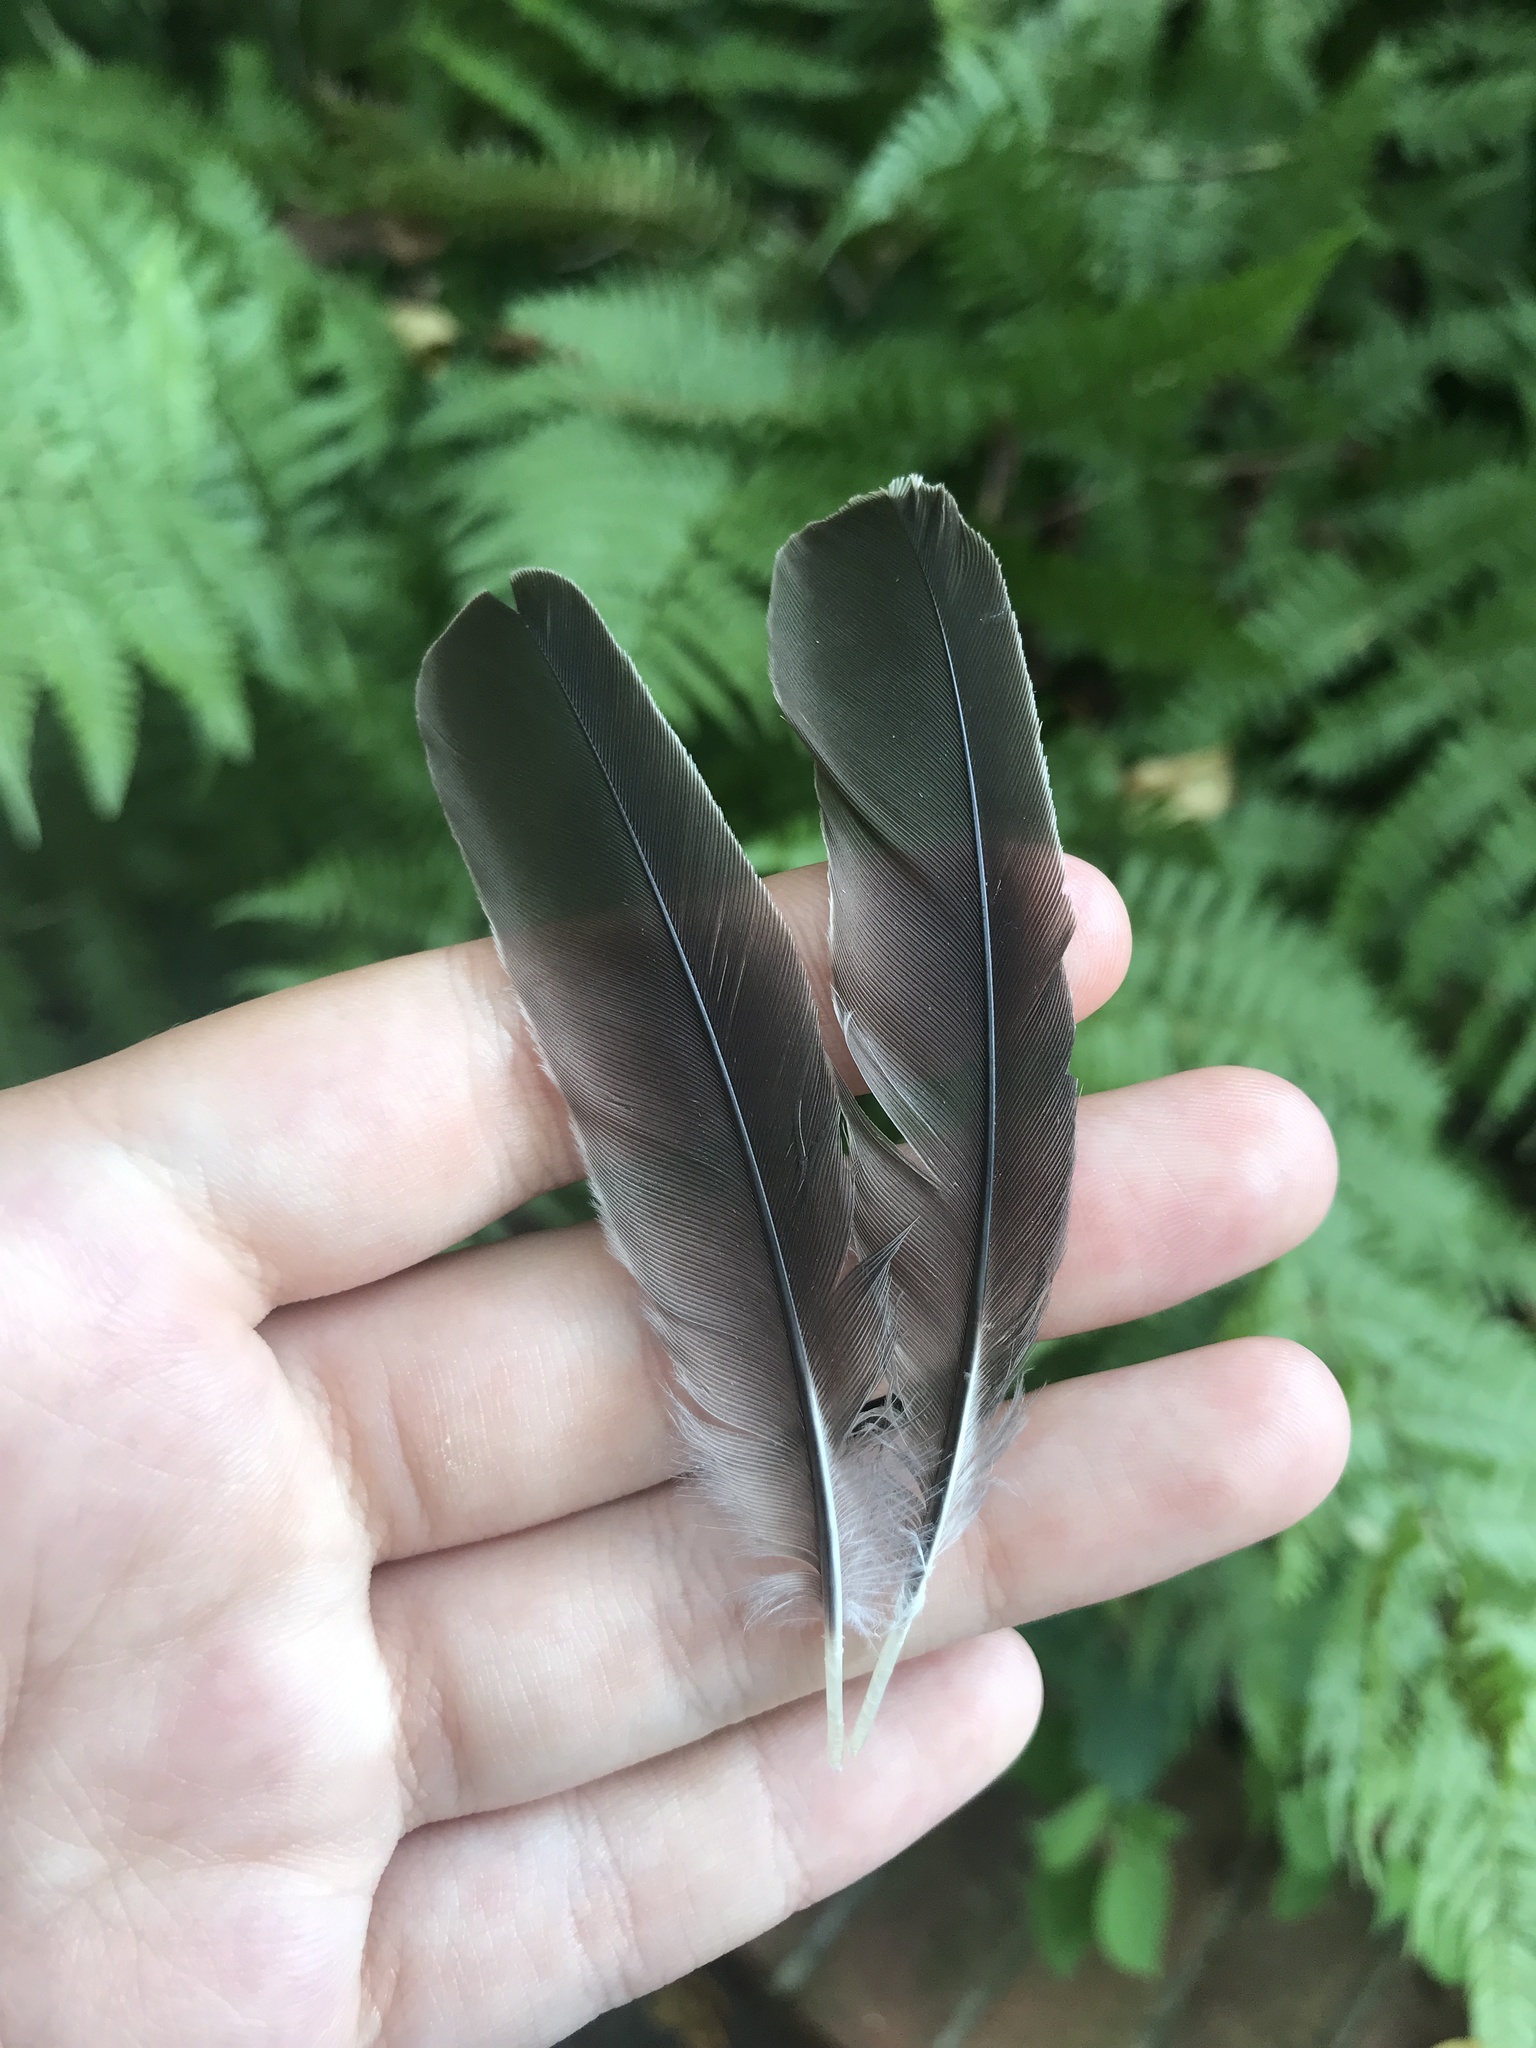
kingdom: Animalia
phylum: Chordata
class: Aves
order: Passeriformes
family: Mimidae
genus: Mimus
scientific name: Mimus polyglottos
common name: Northern mockingbird
